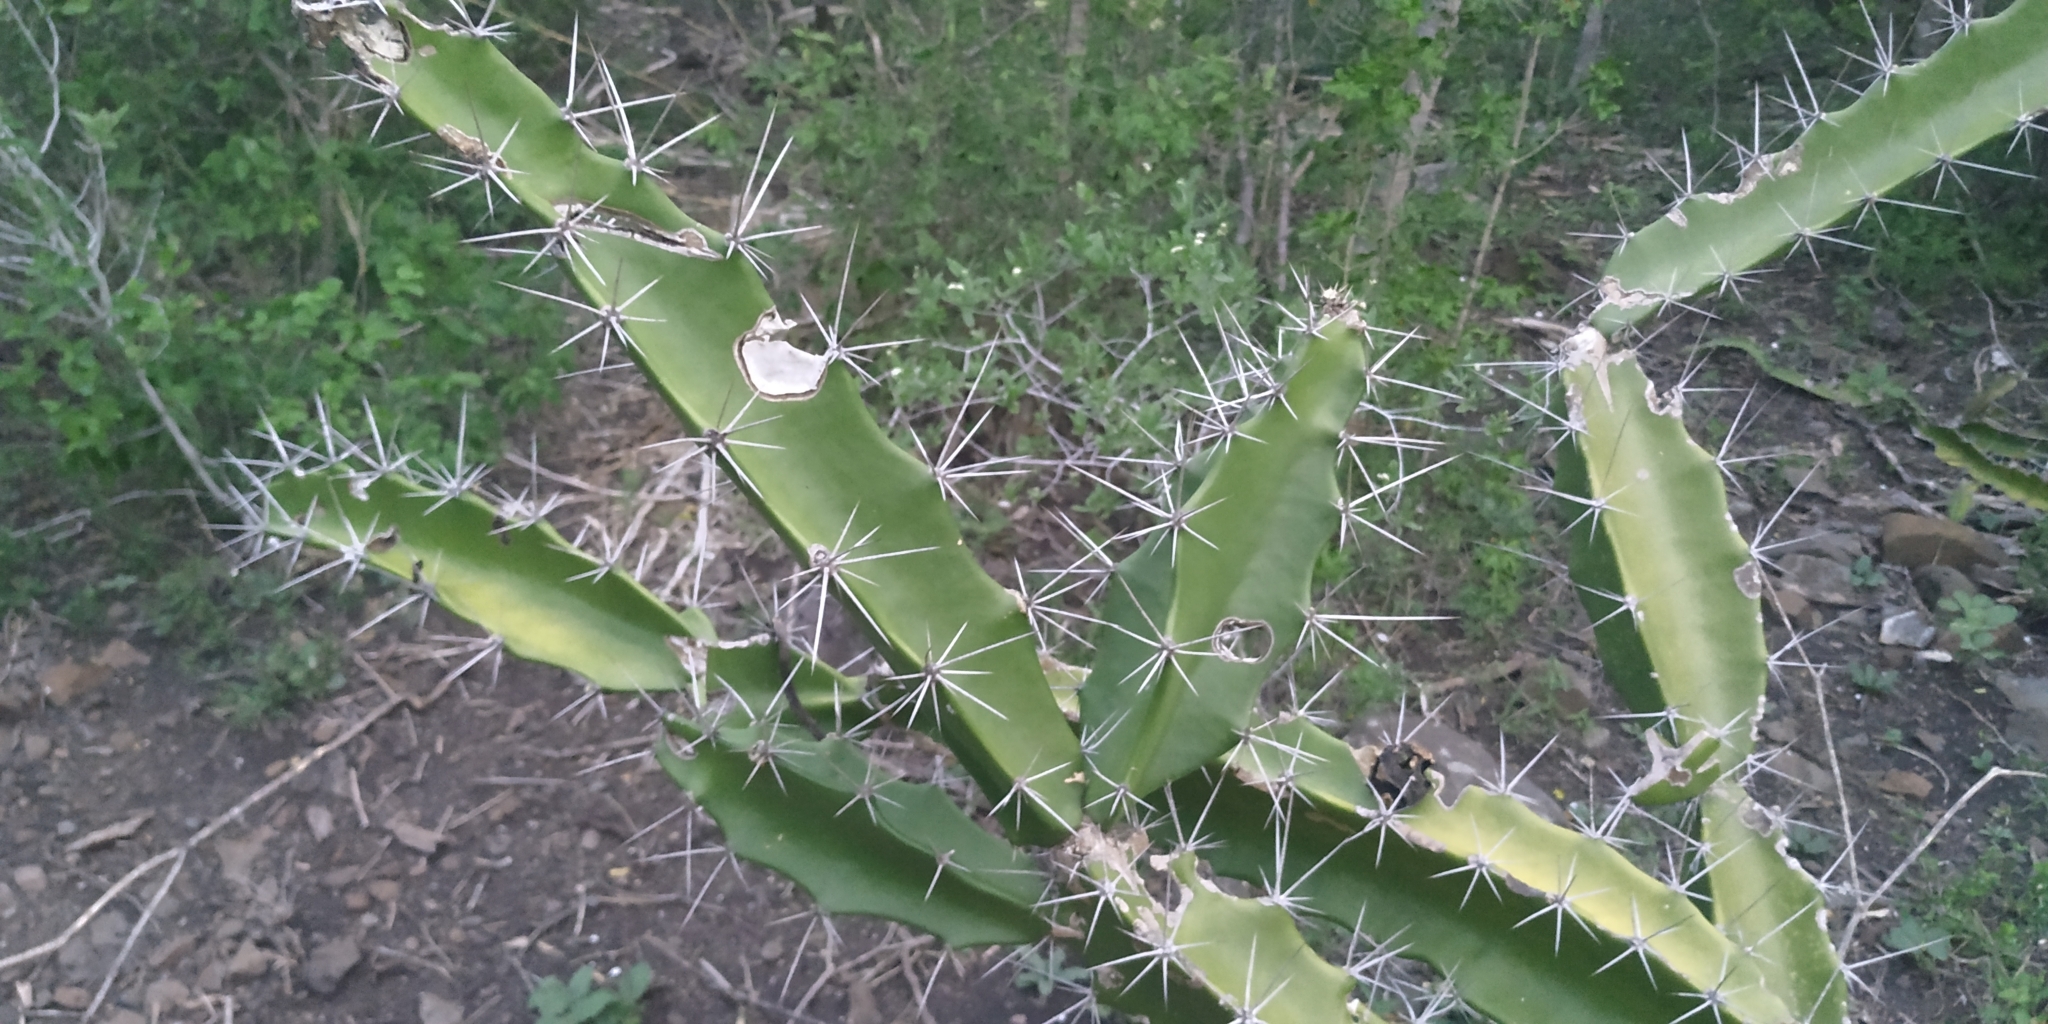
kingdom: Plantae
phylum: Tracheophyta
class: Magnoliopsida
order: Caryophyllales
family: Cactaceae
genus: Acanthocereus
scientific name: Acanthocereus tetragonus
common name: Triangle cactus
